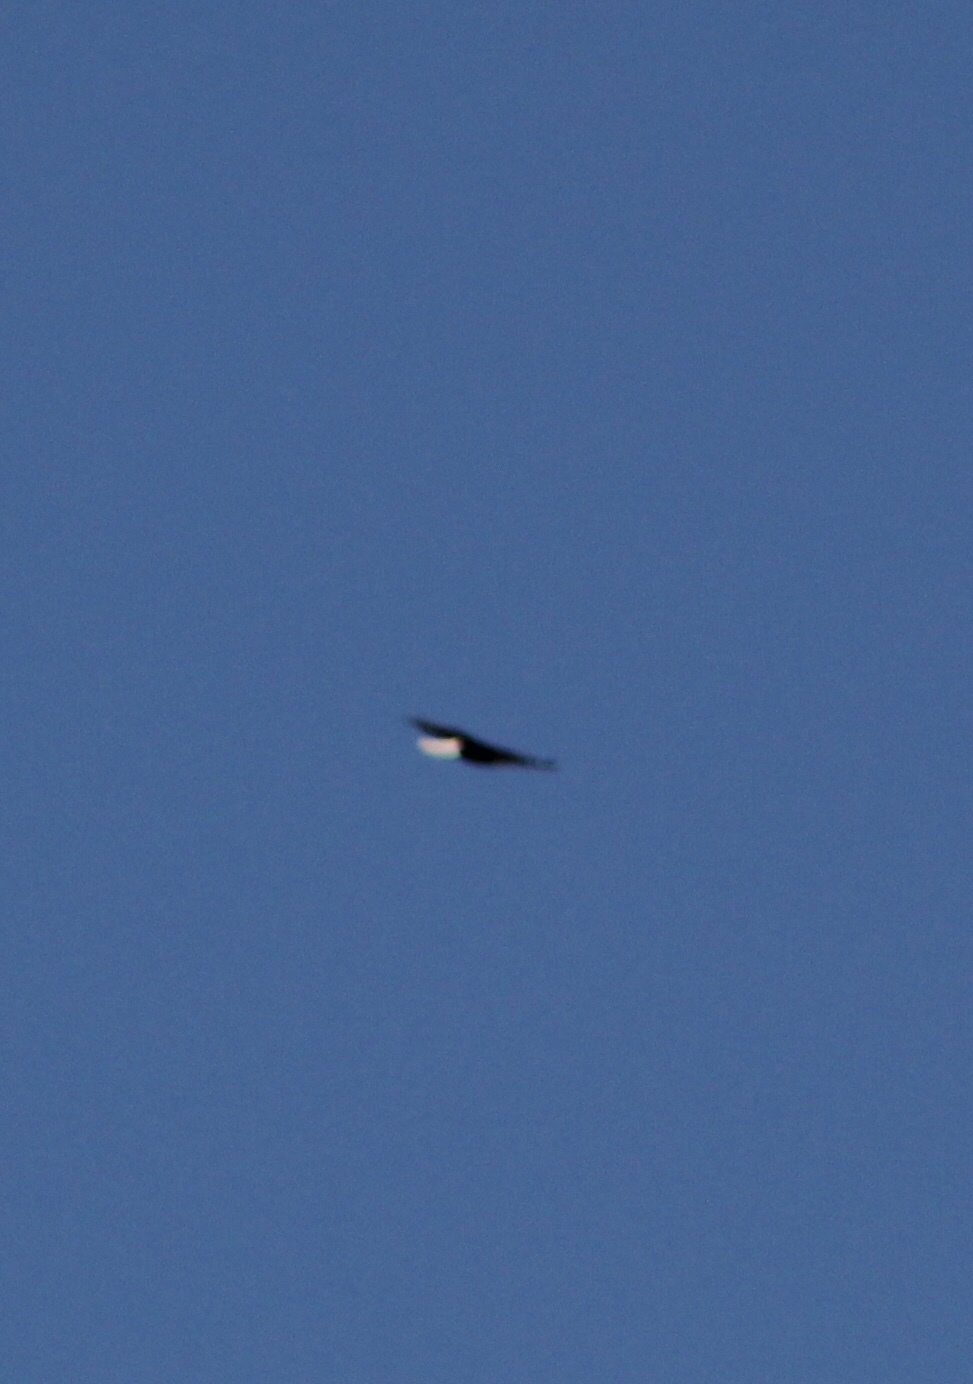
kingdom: Animalia
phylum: Chordata
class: Aves
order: Accipitriformes
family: Accipitridae
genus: Haliaeetus
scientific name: Haliaeetus leucocephalus
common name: Bald eagle
